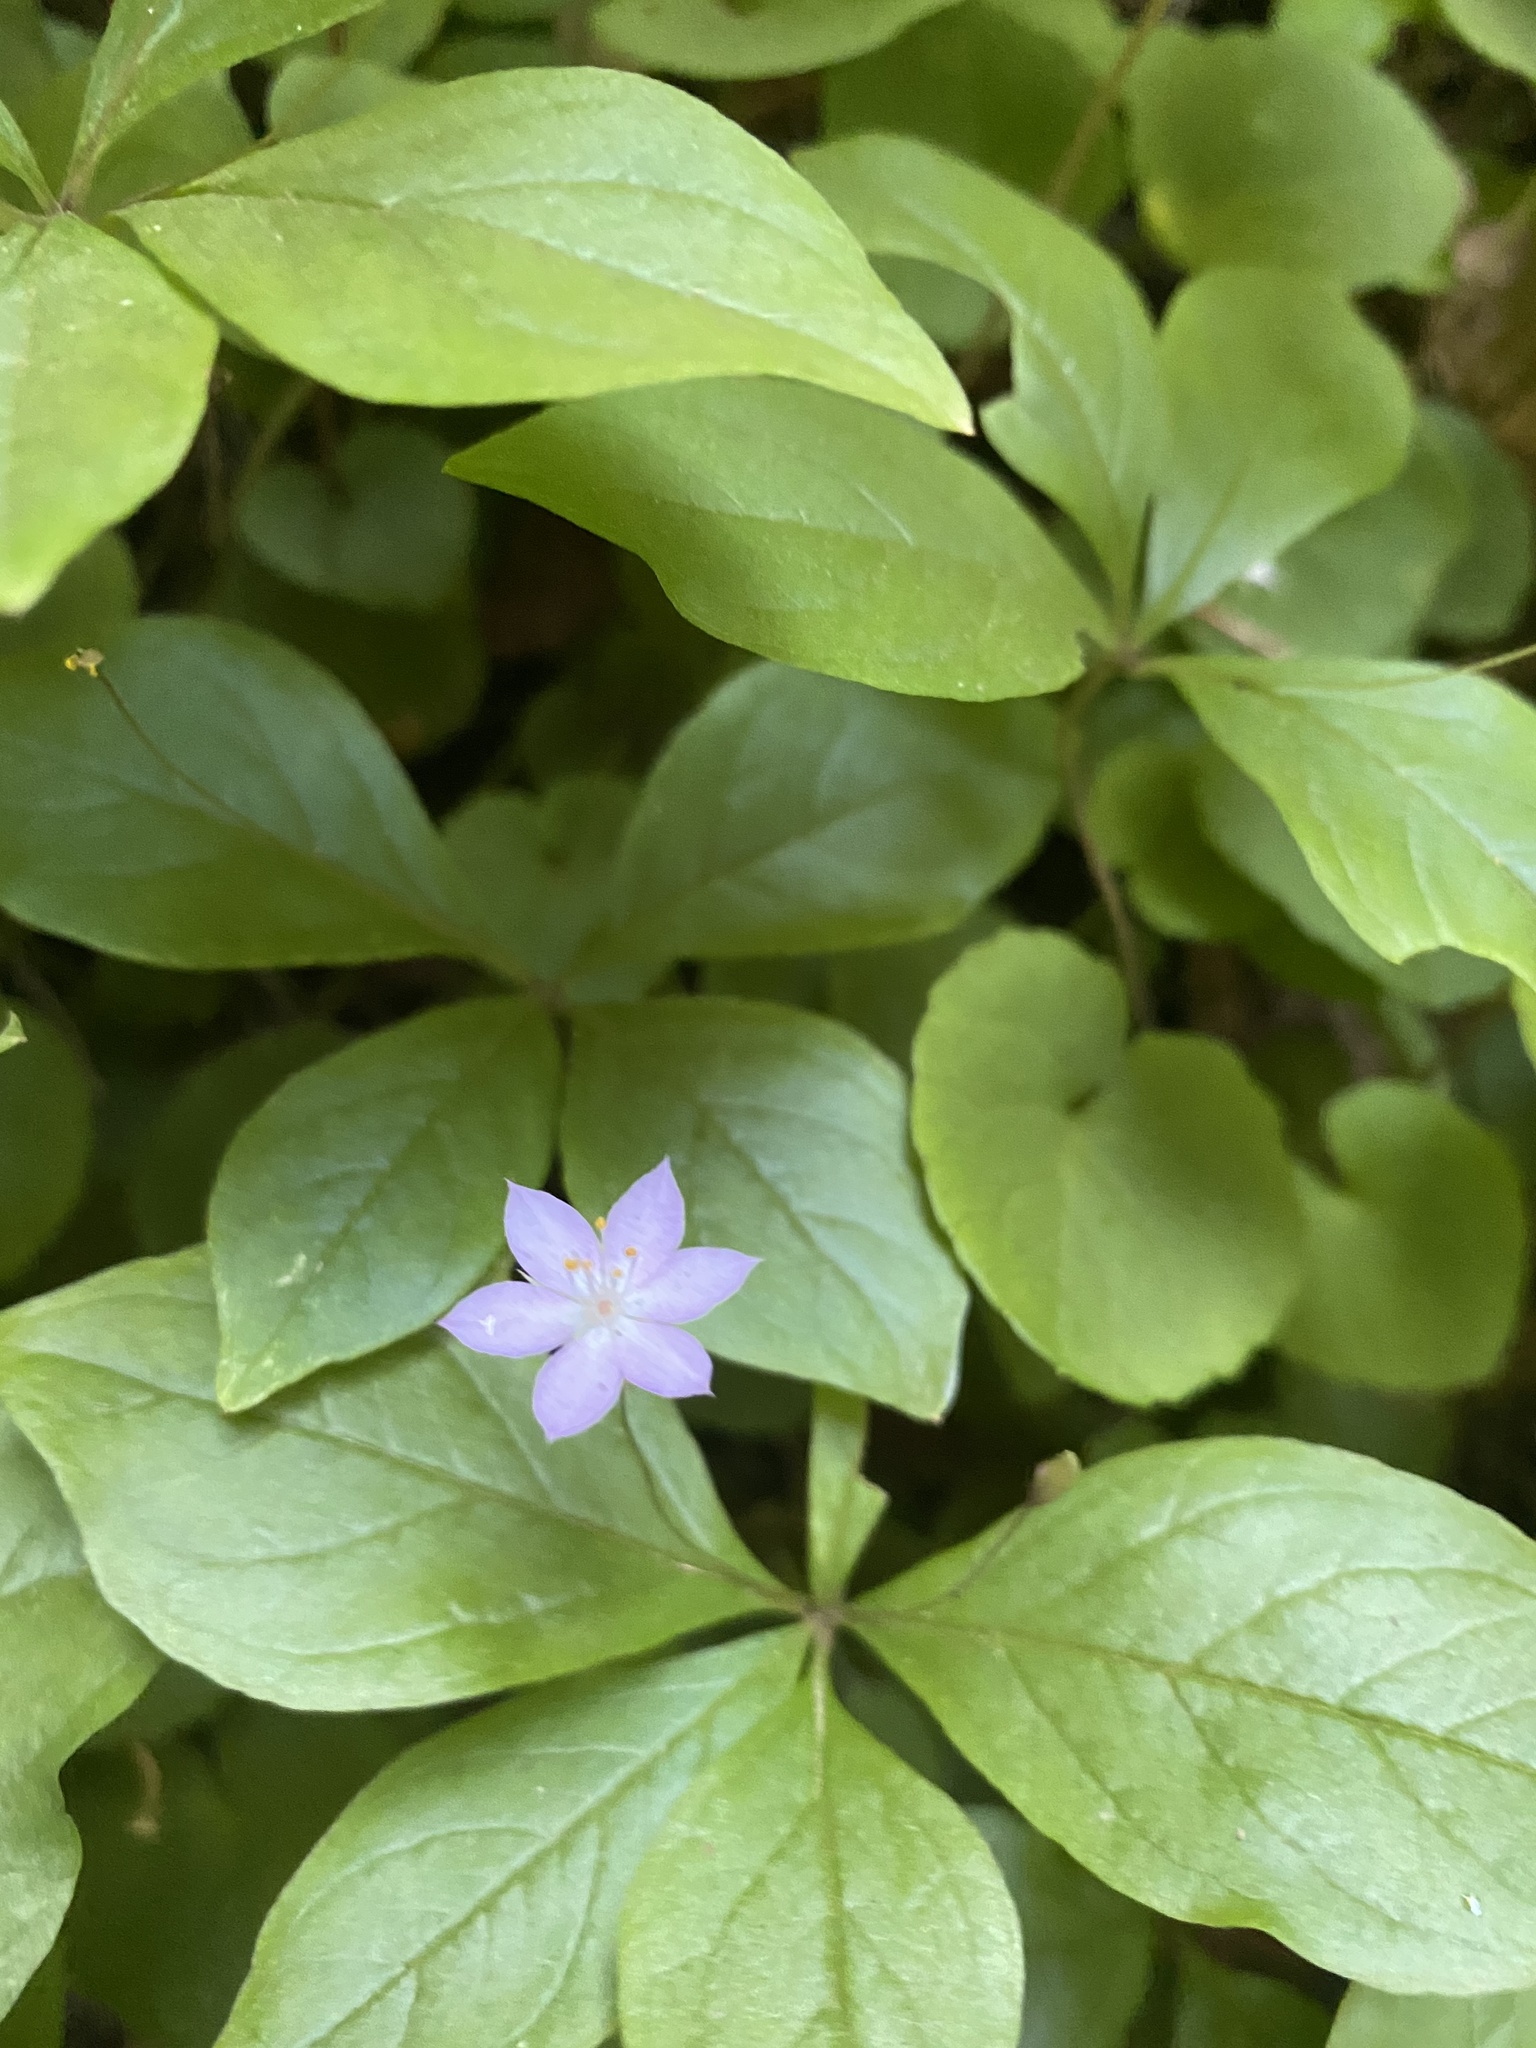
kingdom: Plantae
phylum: Tracheophyta
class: Magnoliopsida
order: Ericales
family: Primulaceae
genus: Lysimachia
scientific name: Lysimachia latifolia
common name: Pacific starflower
